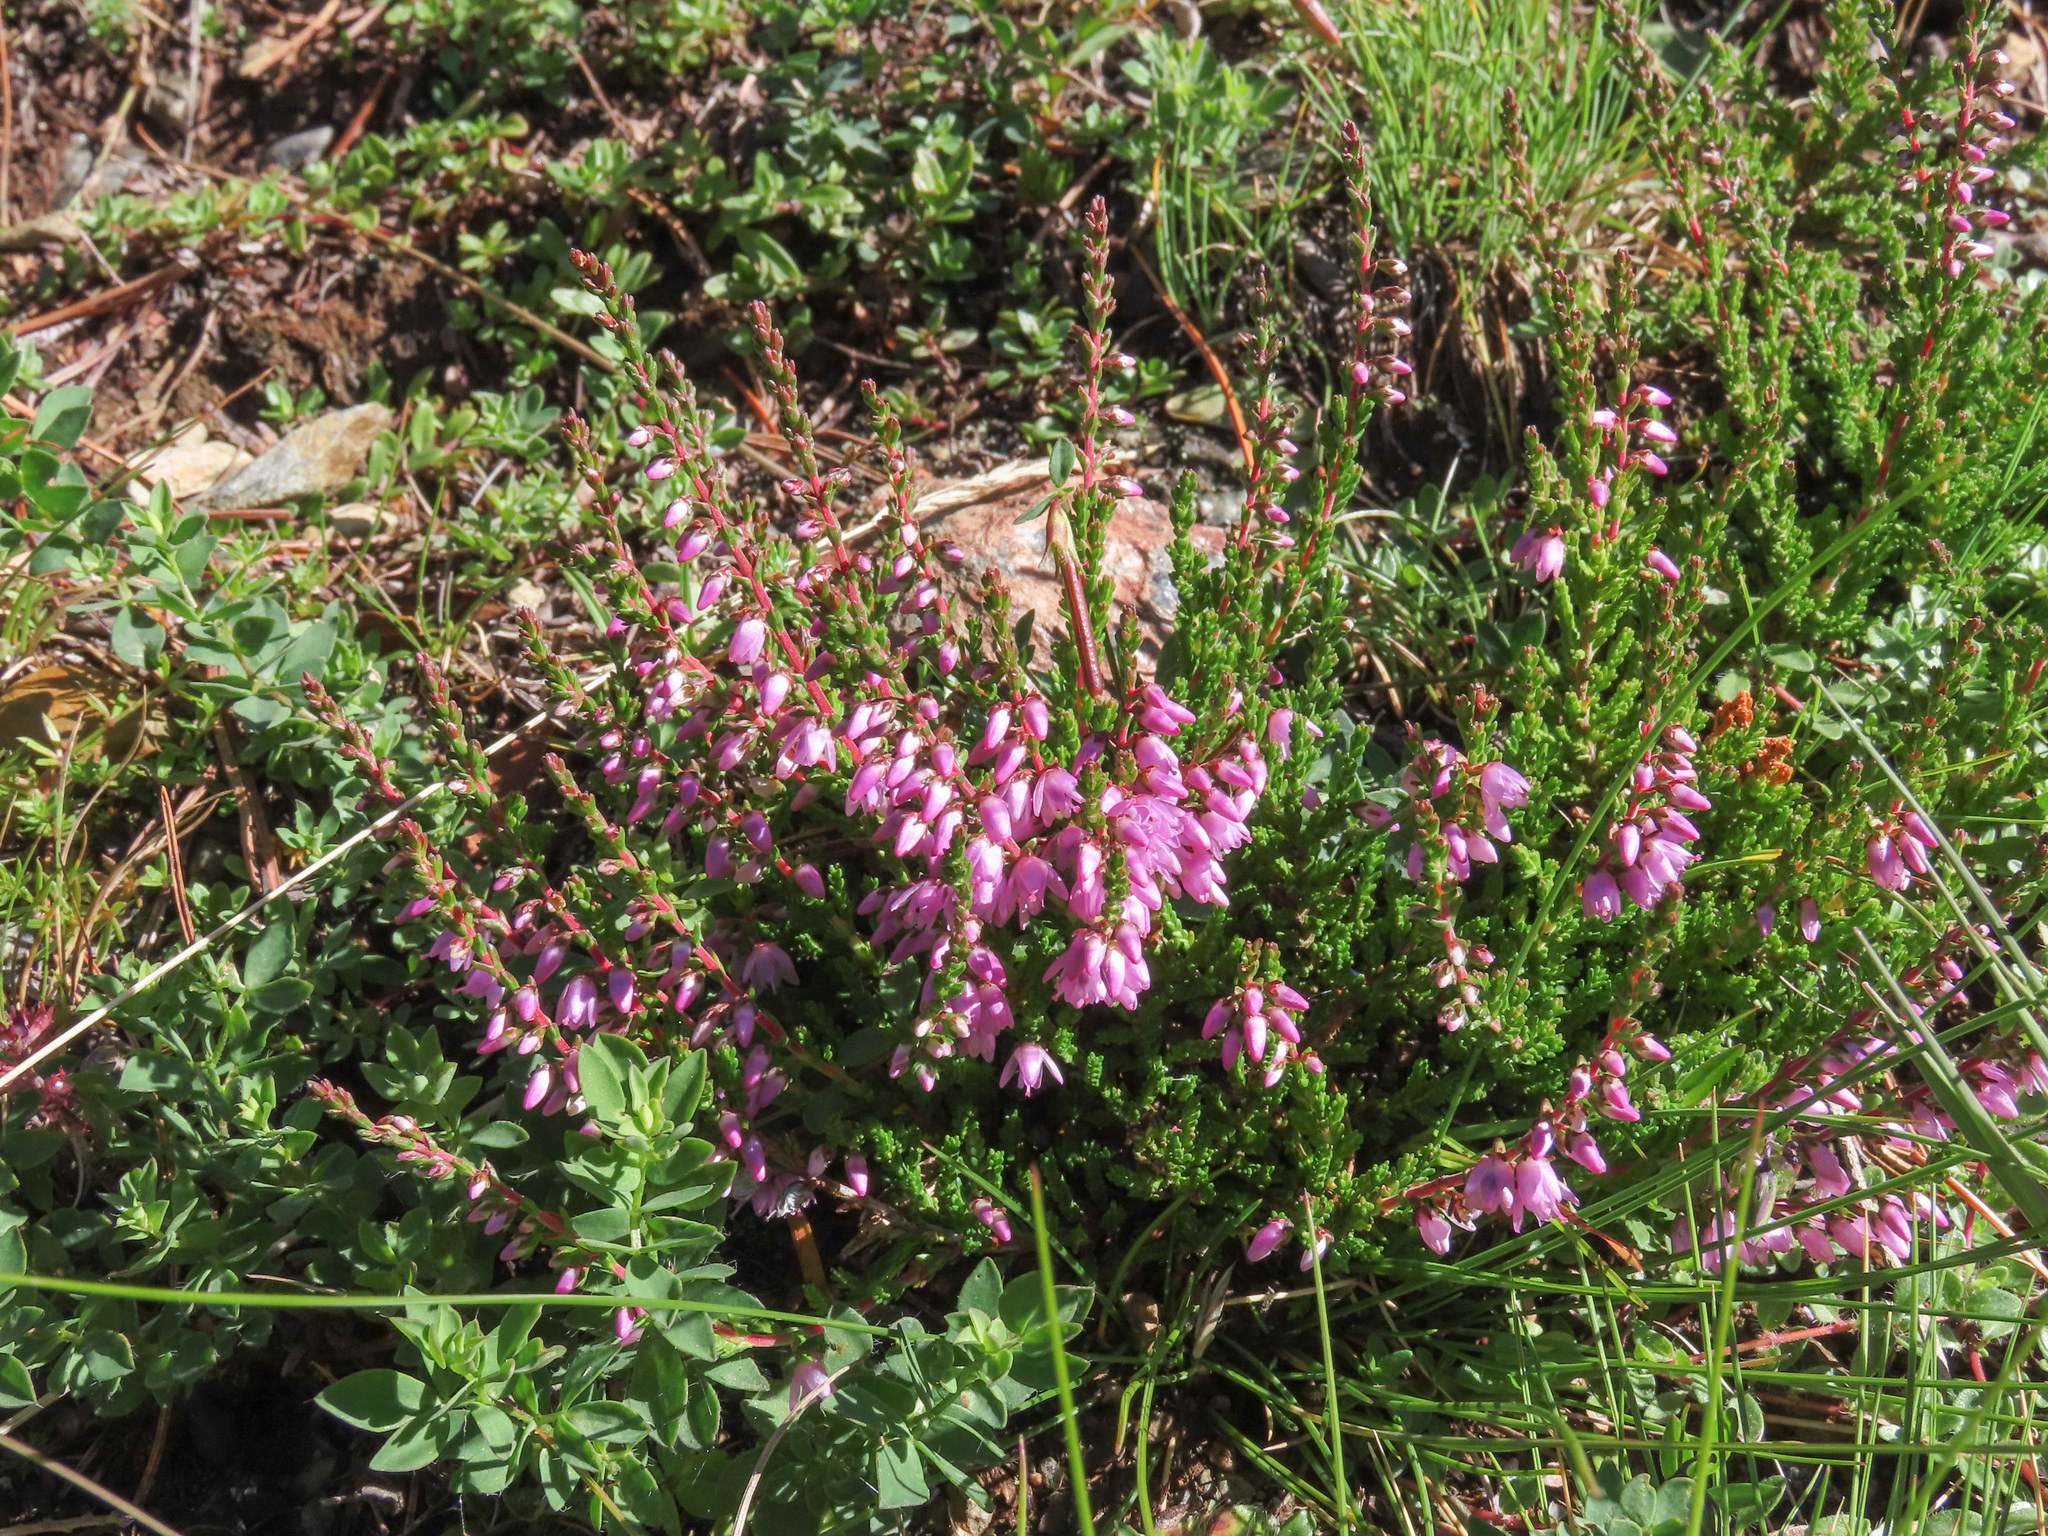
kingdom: Plantae
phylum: Tracheophyta
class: Magnoliopsida
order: Ericales
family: Ericaceae
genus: Calluna
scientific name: Calluna vulgaris
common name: Heather
